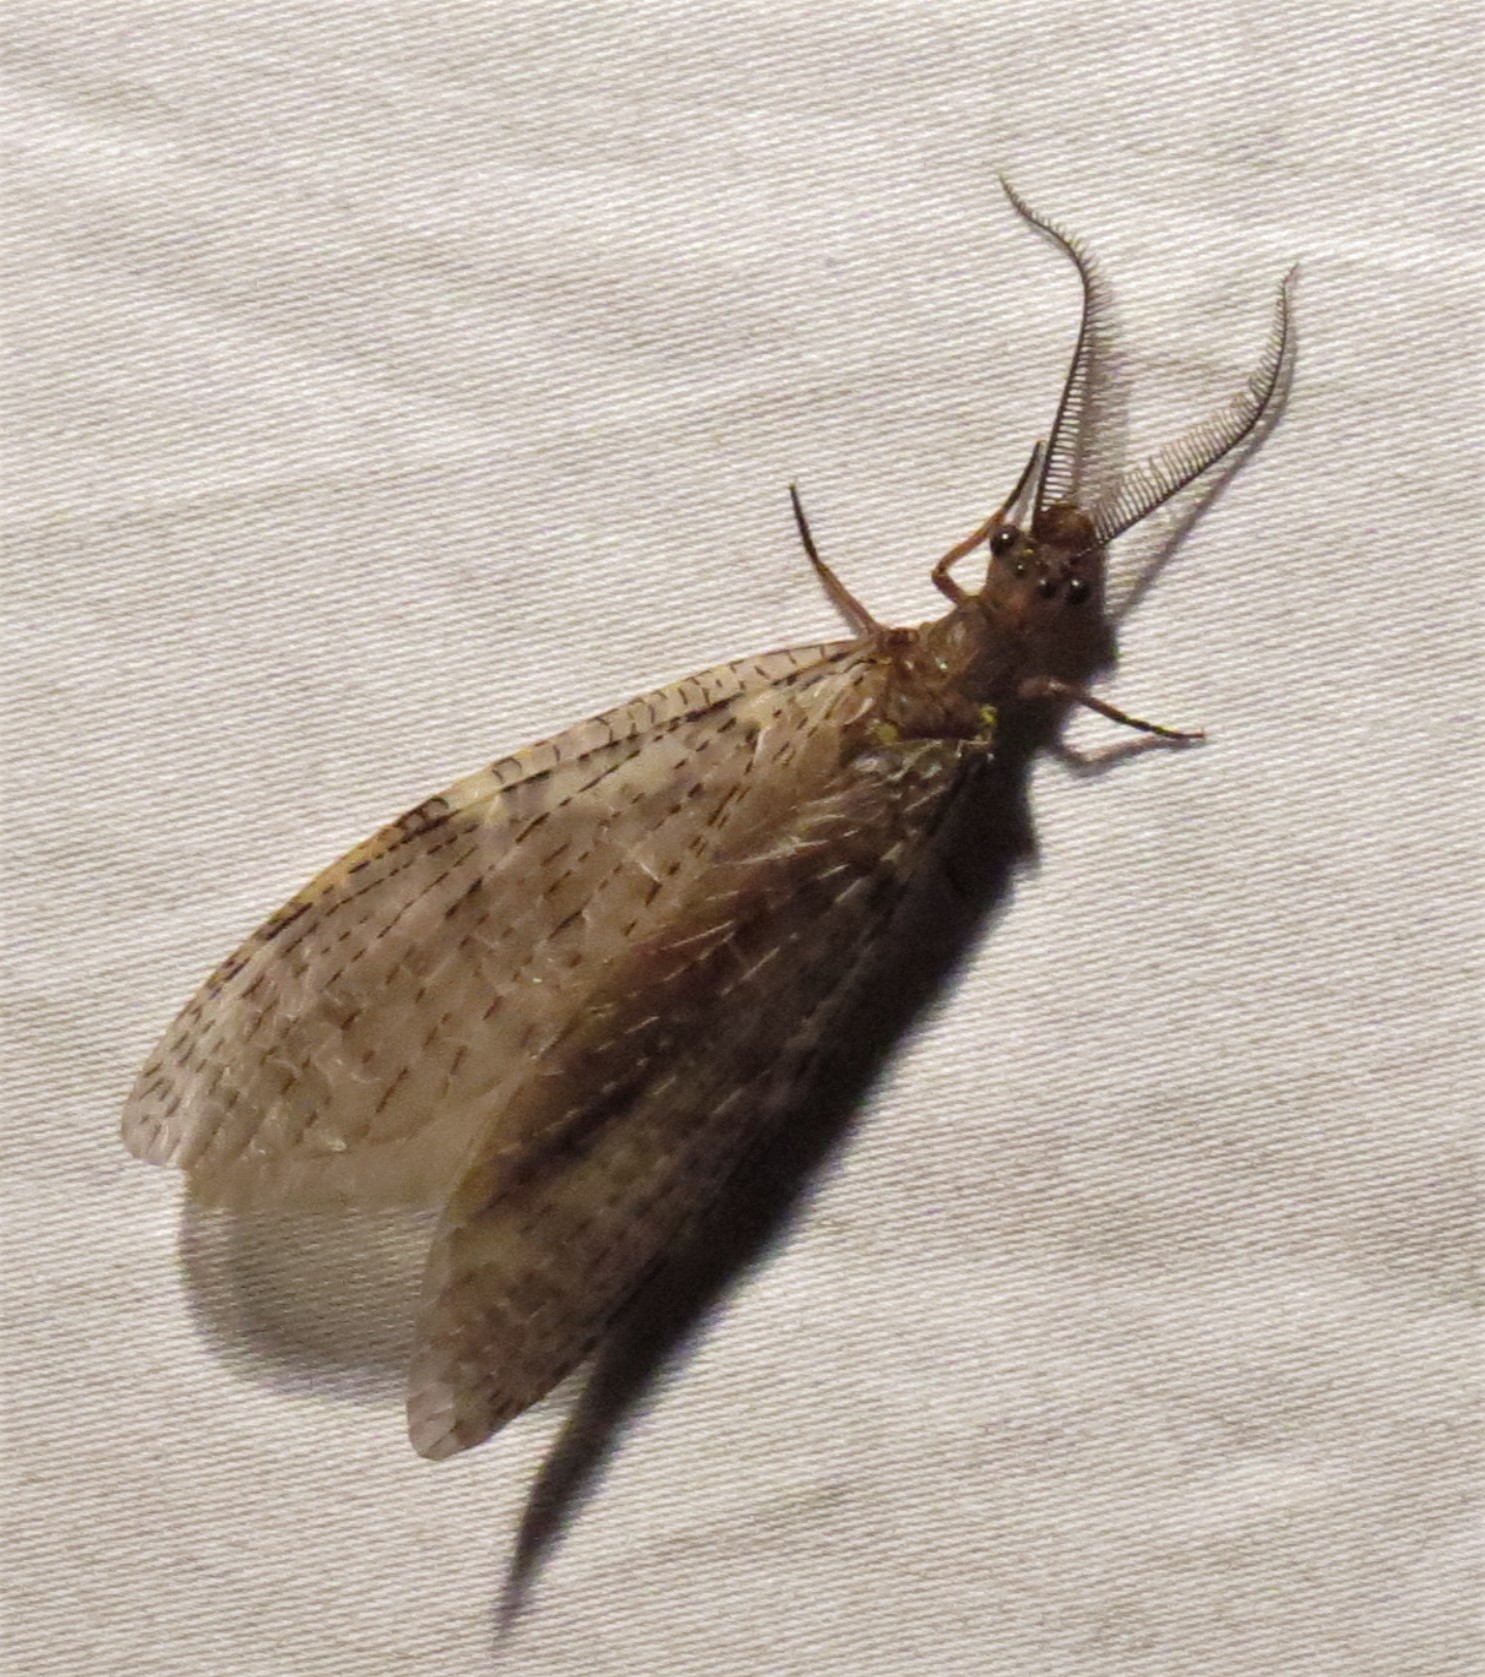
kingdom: Animalia
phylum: Arthropoda
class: Insecta
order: Megaloptera
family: Corydalidae
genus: Chauliodes
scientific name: Chauliodes pectinicornis
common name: Summer fishfly
